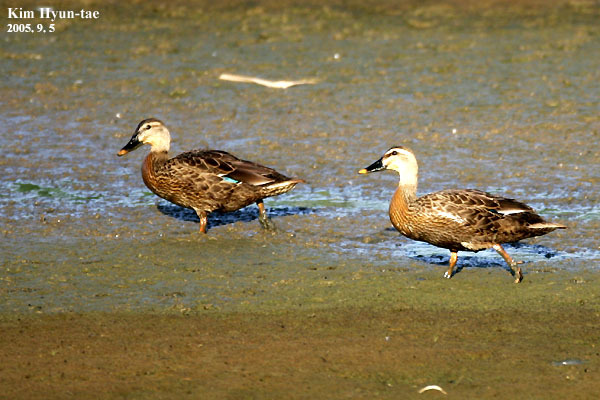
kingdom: Animalia
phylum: Chordata
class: Aves
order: Anseriformes
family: Anatidae
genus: Anas
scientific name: Anas zonorhyncha
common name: Eastern spot-billed duck
